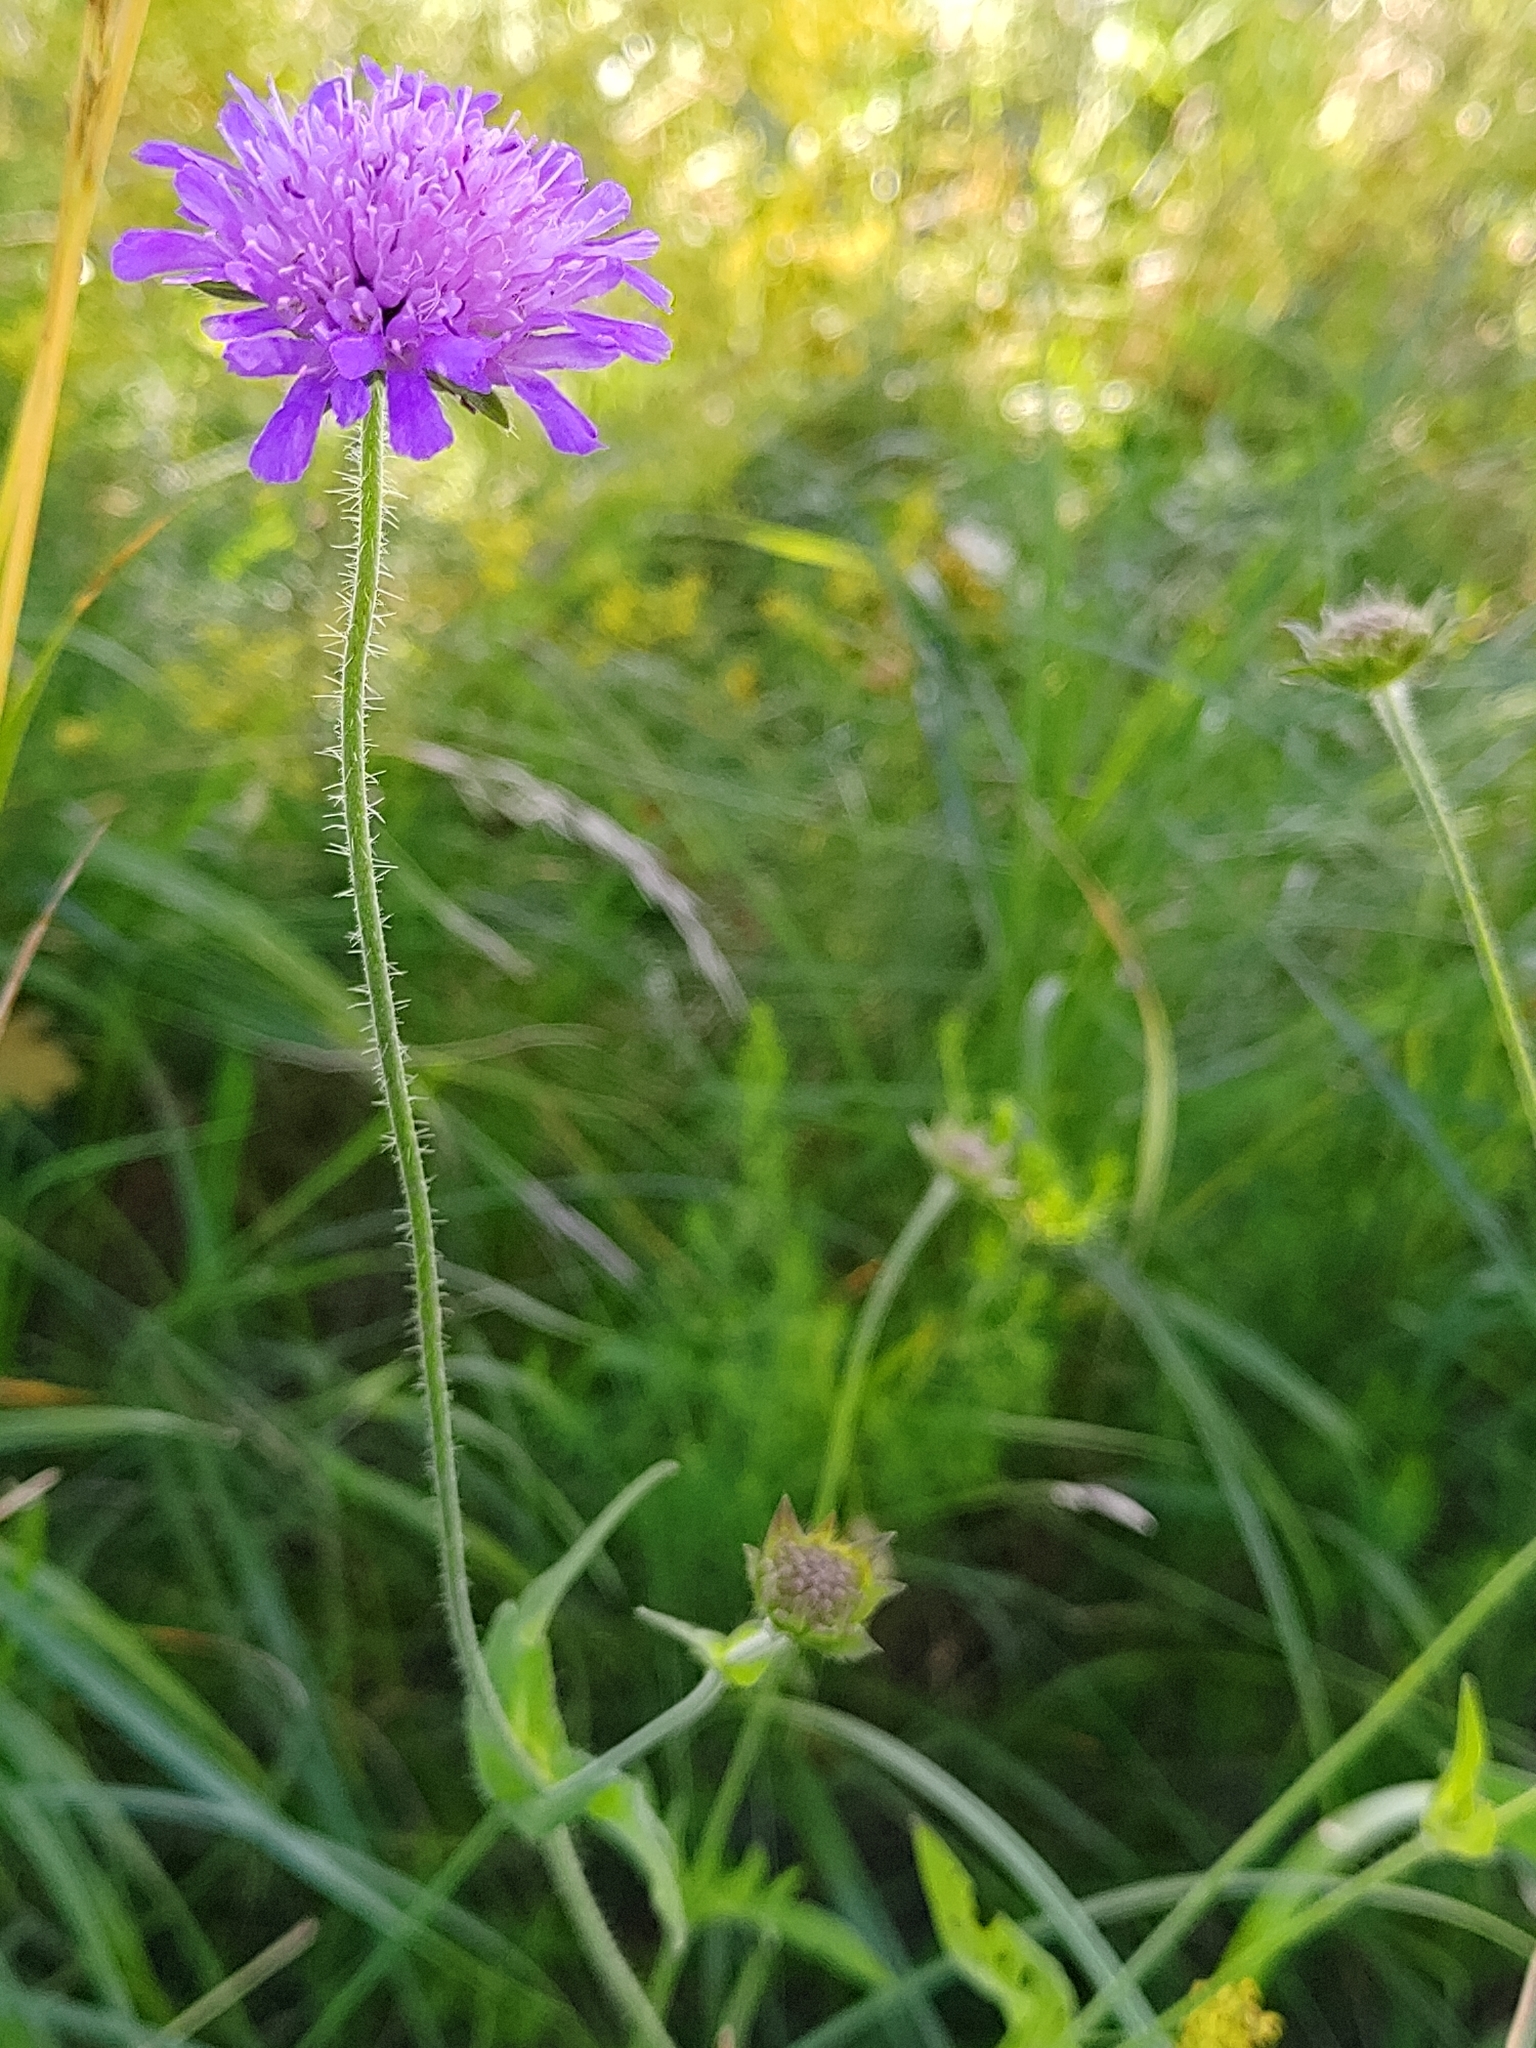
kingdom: Plantae
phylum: Tracheophyta
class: Magnoliopsida
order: Dipsacales
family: Caprifoliaceae
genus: Knautia
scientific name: Knautia arvensis
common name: Field scabiosa
